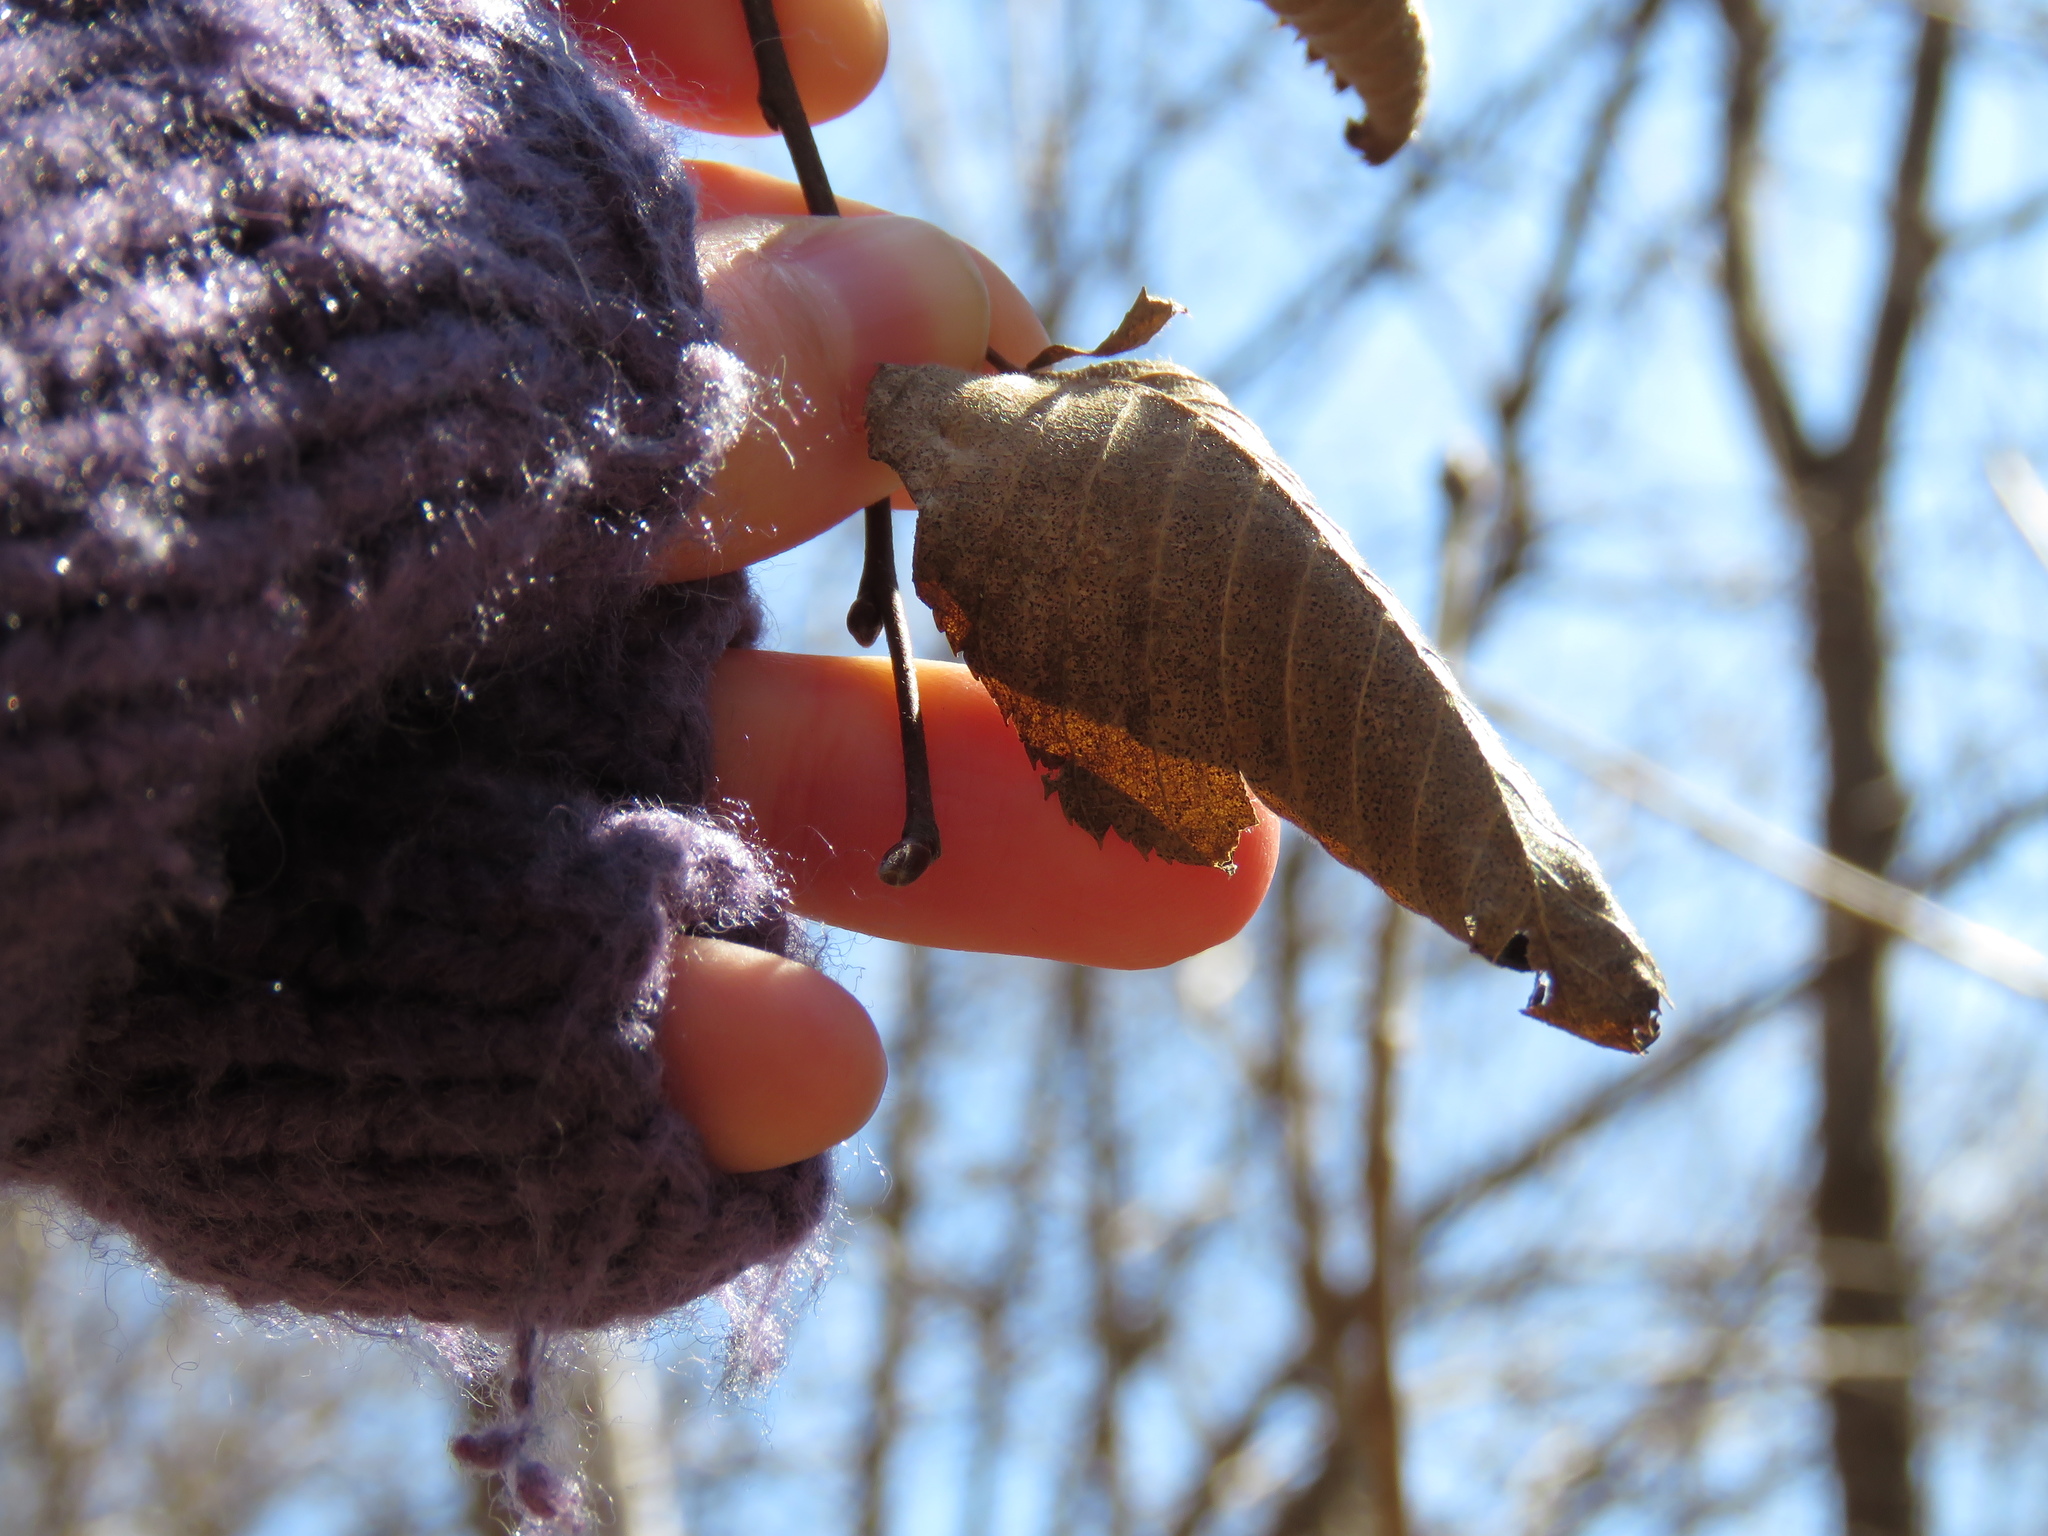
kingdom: Plantae
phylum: Tracheophyta
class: Magnoliopsida
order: Fagales
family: Betulaceae
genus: Carpinus
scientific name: Carpinus caroliniana
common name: American hornbeam
